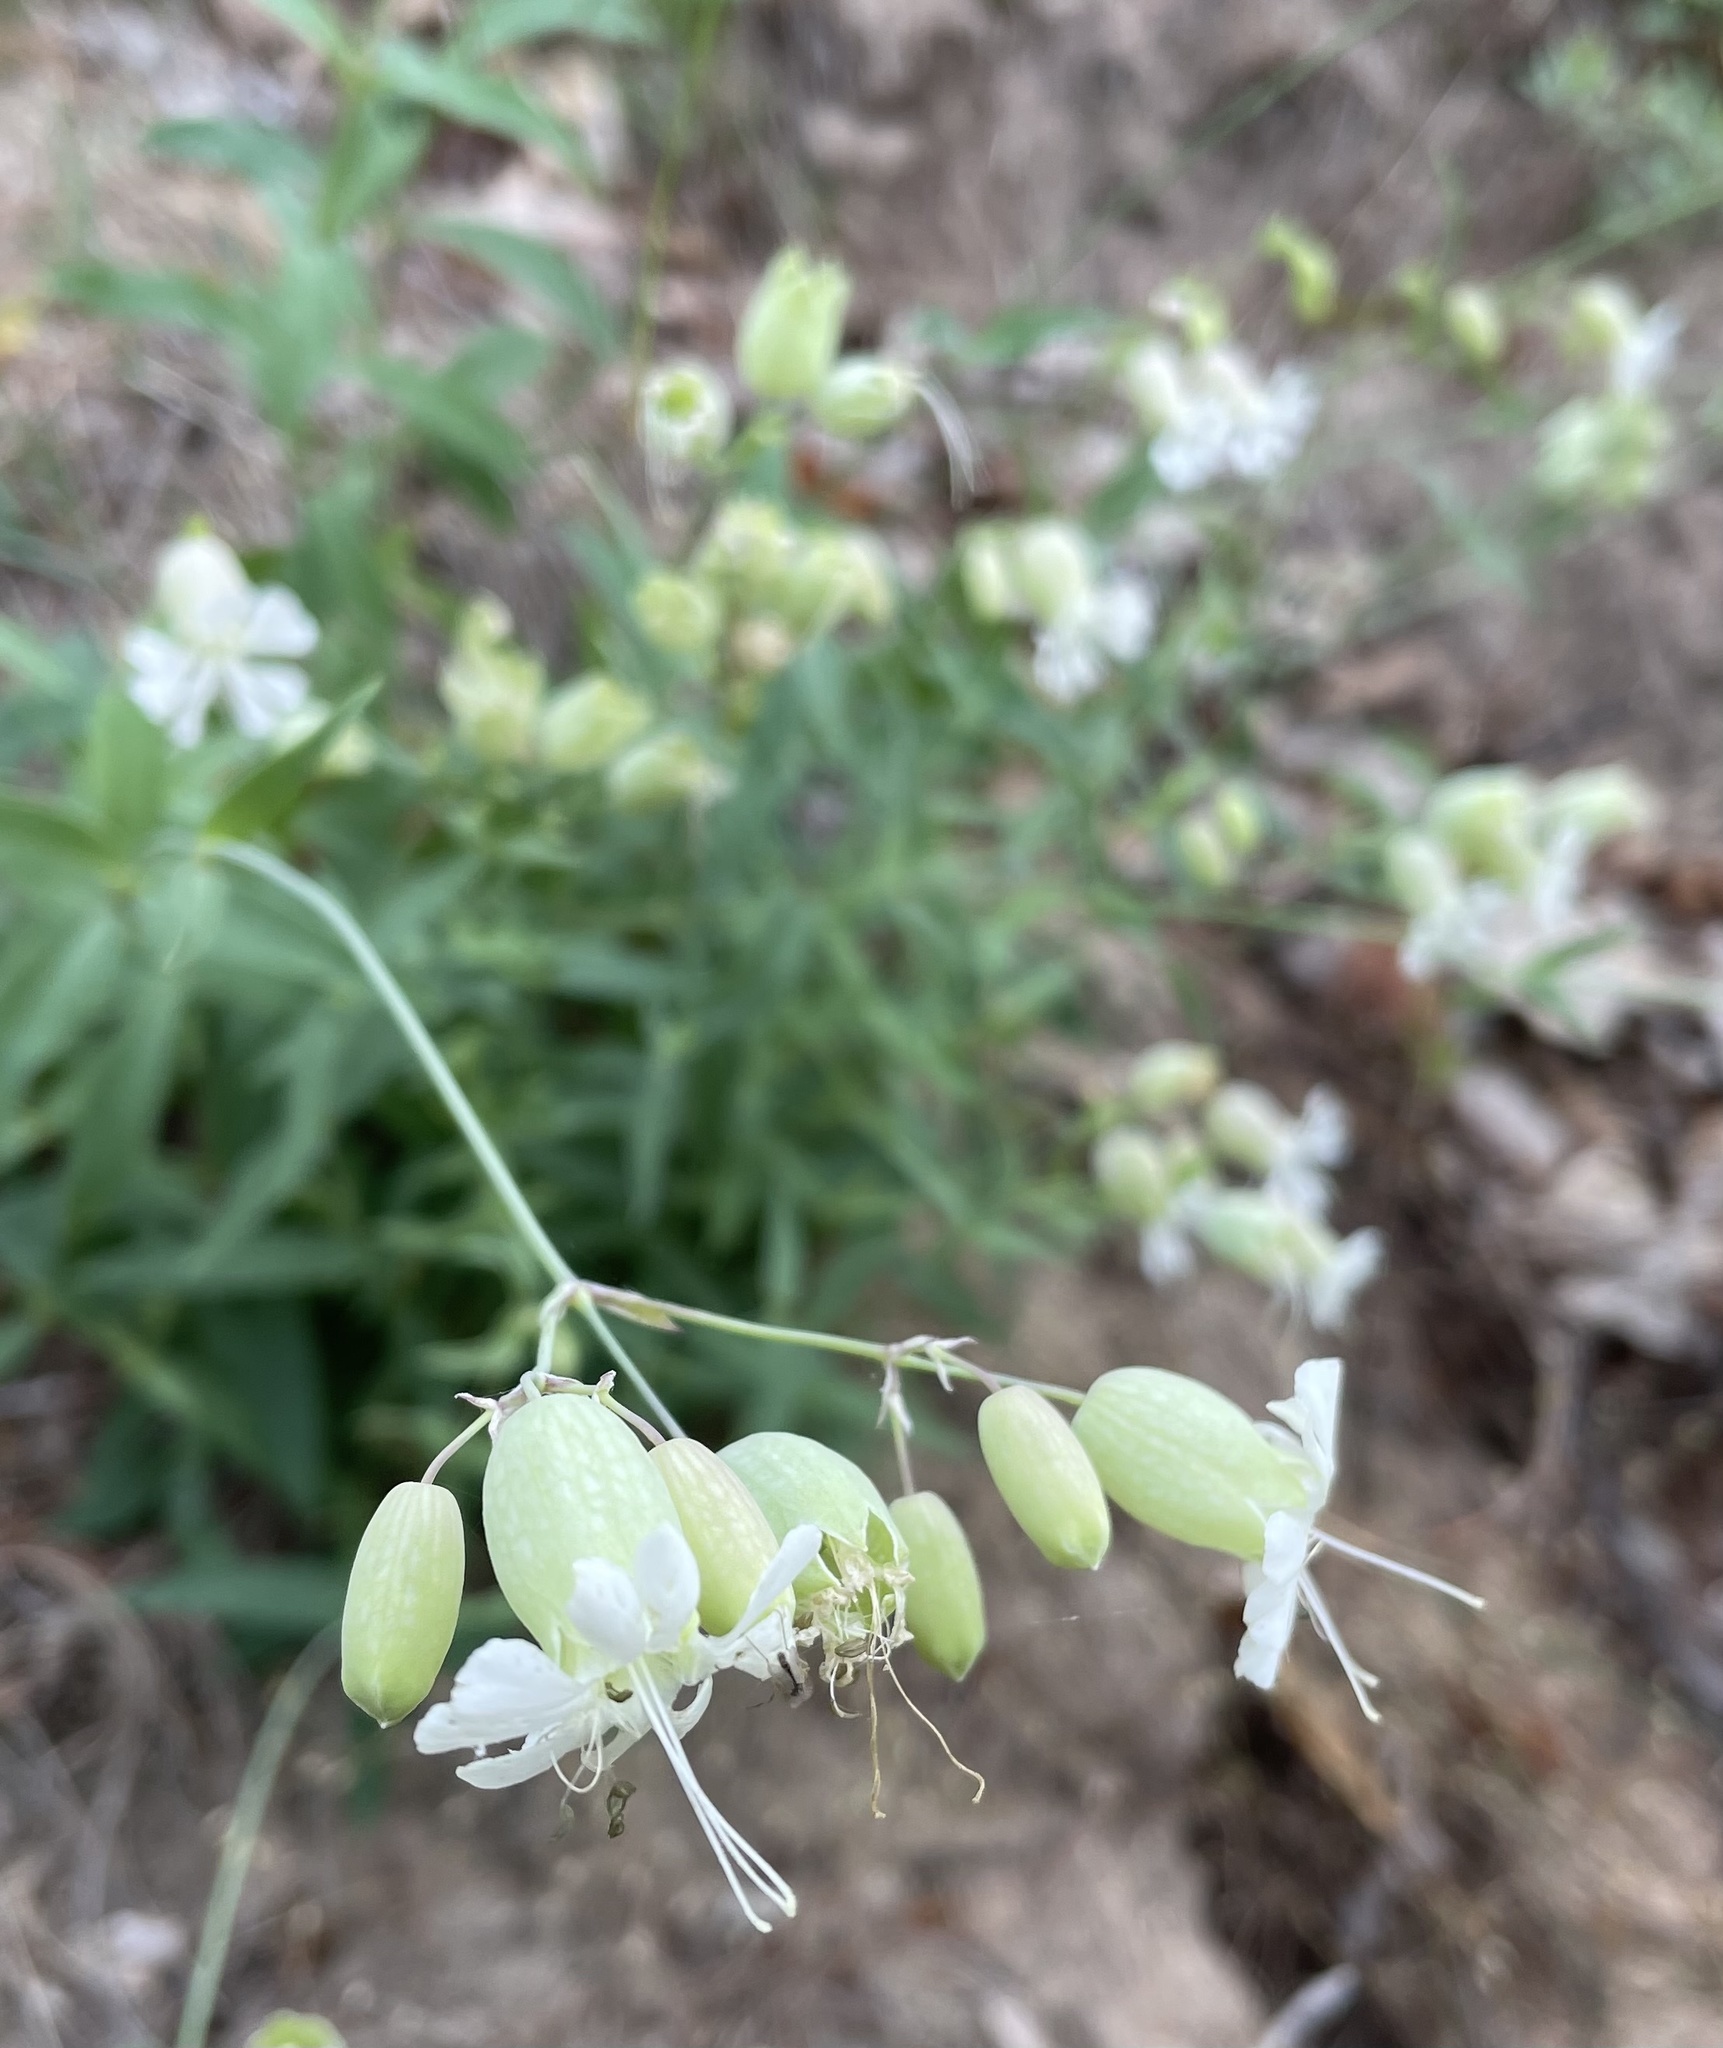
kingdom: Plantae
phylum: Tracheophyta
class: Magnoliopsida
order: Caryophyllales
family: Caryophyllaceae
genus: Silene
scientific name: Silene vulgaris
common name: Bladder campion
